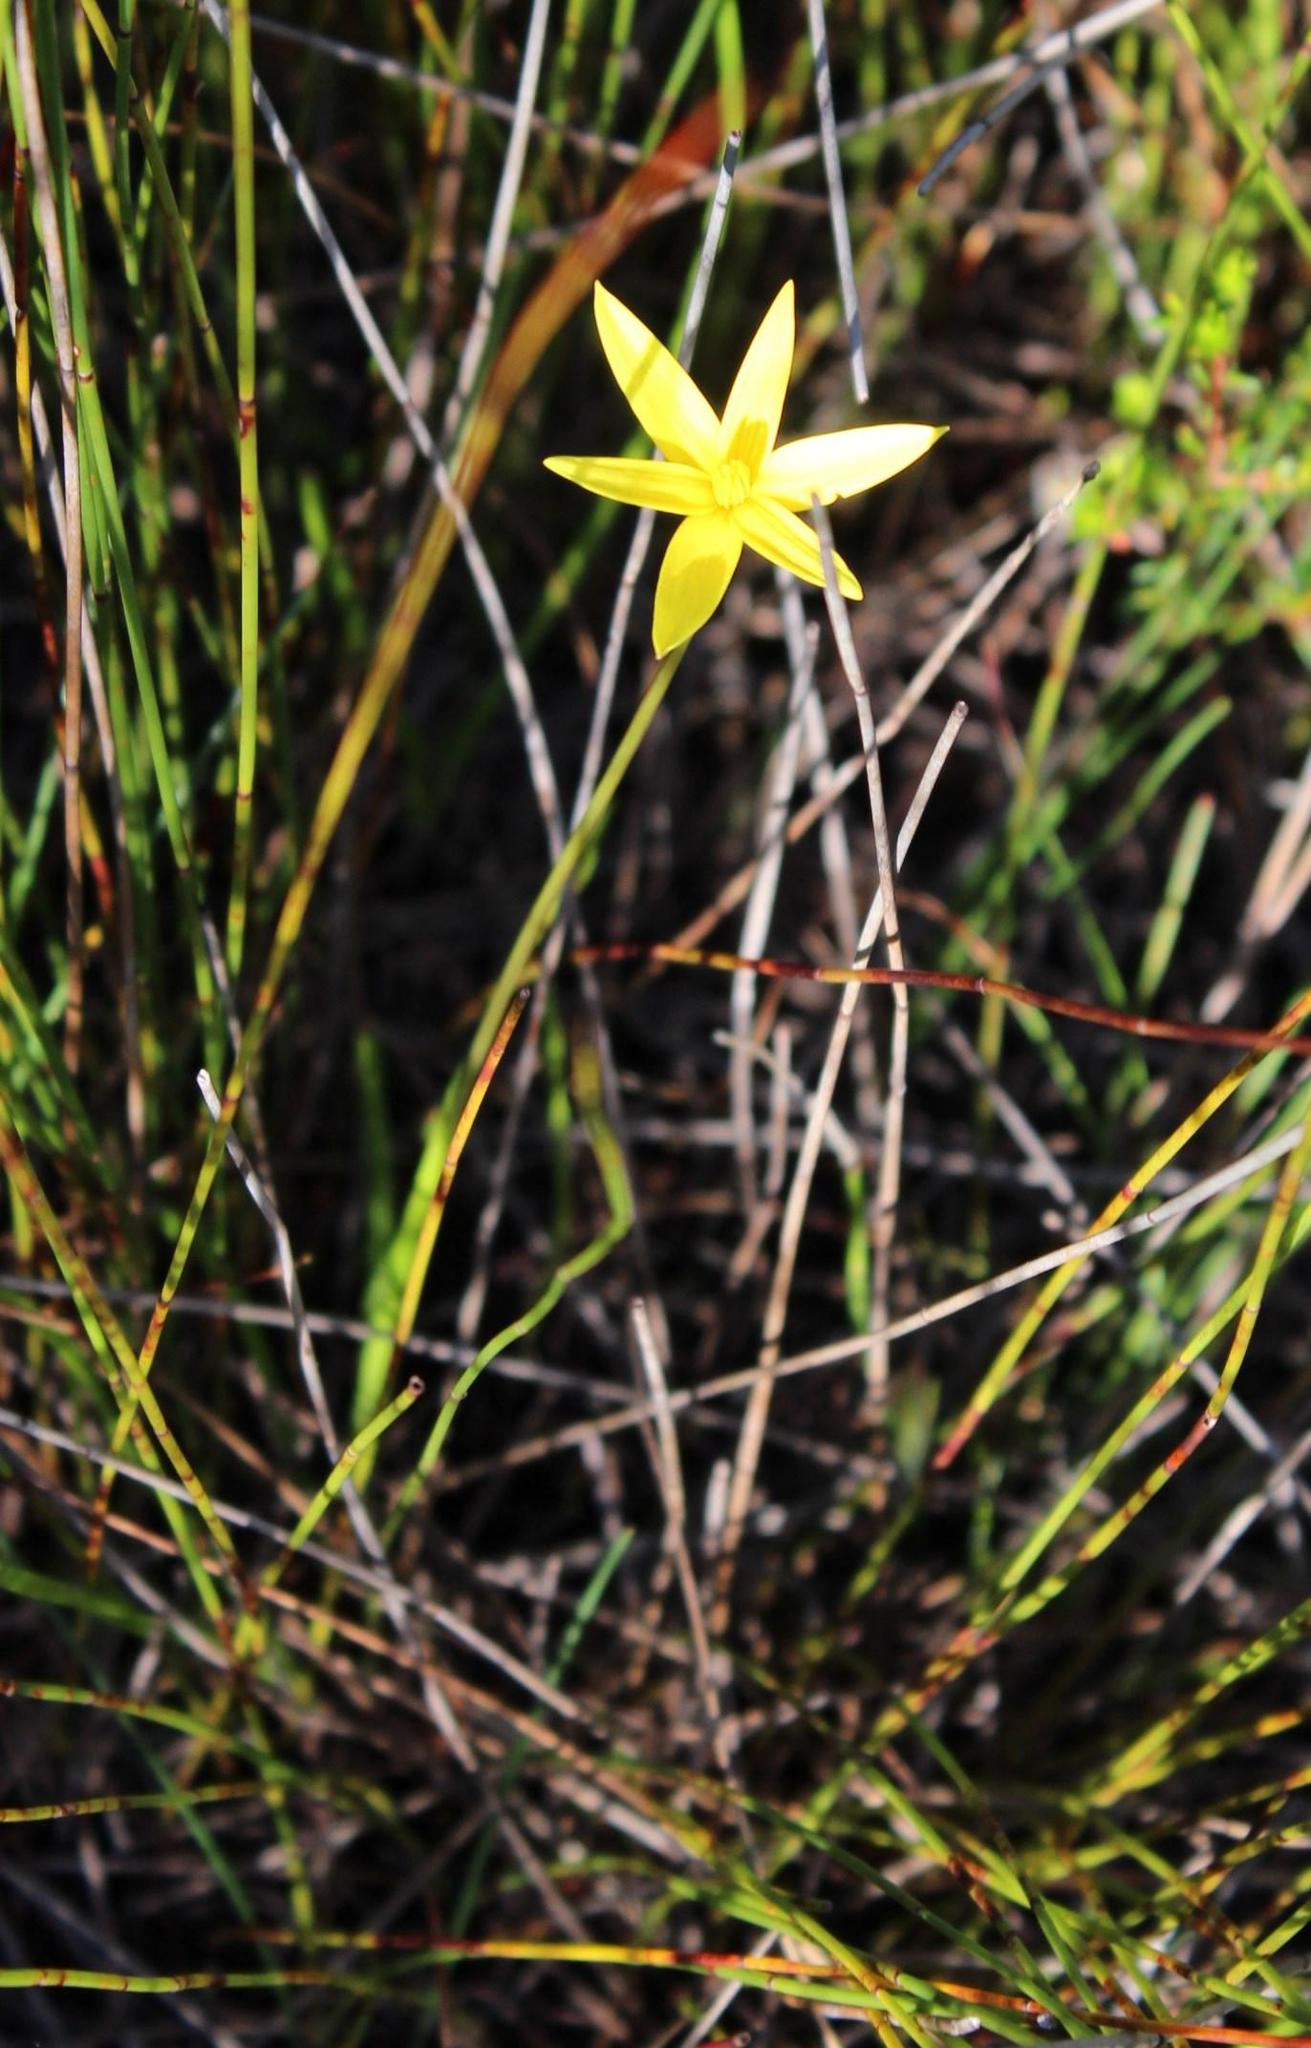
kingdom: Plantae
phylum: Tracheophyta
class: Liliopsida
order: Asparagales
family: Hypoxidaceae
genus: Pauridia
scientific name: Pauridia capensis
